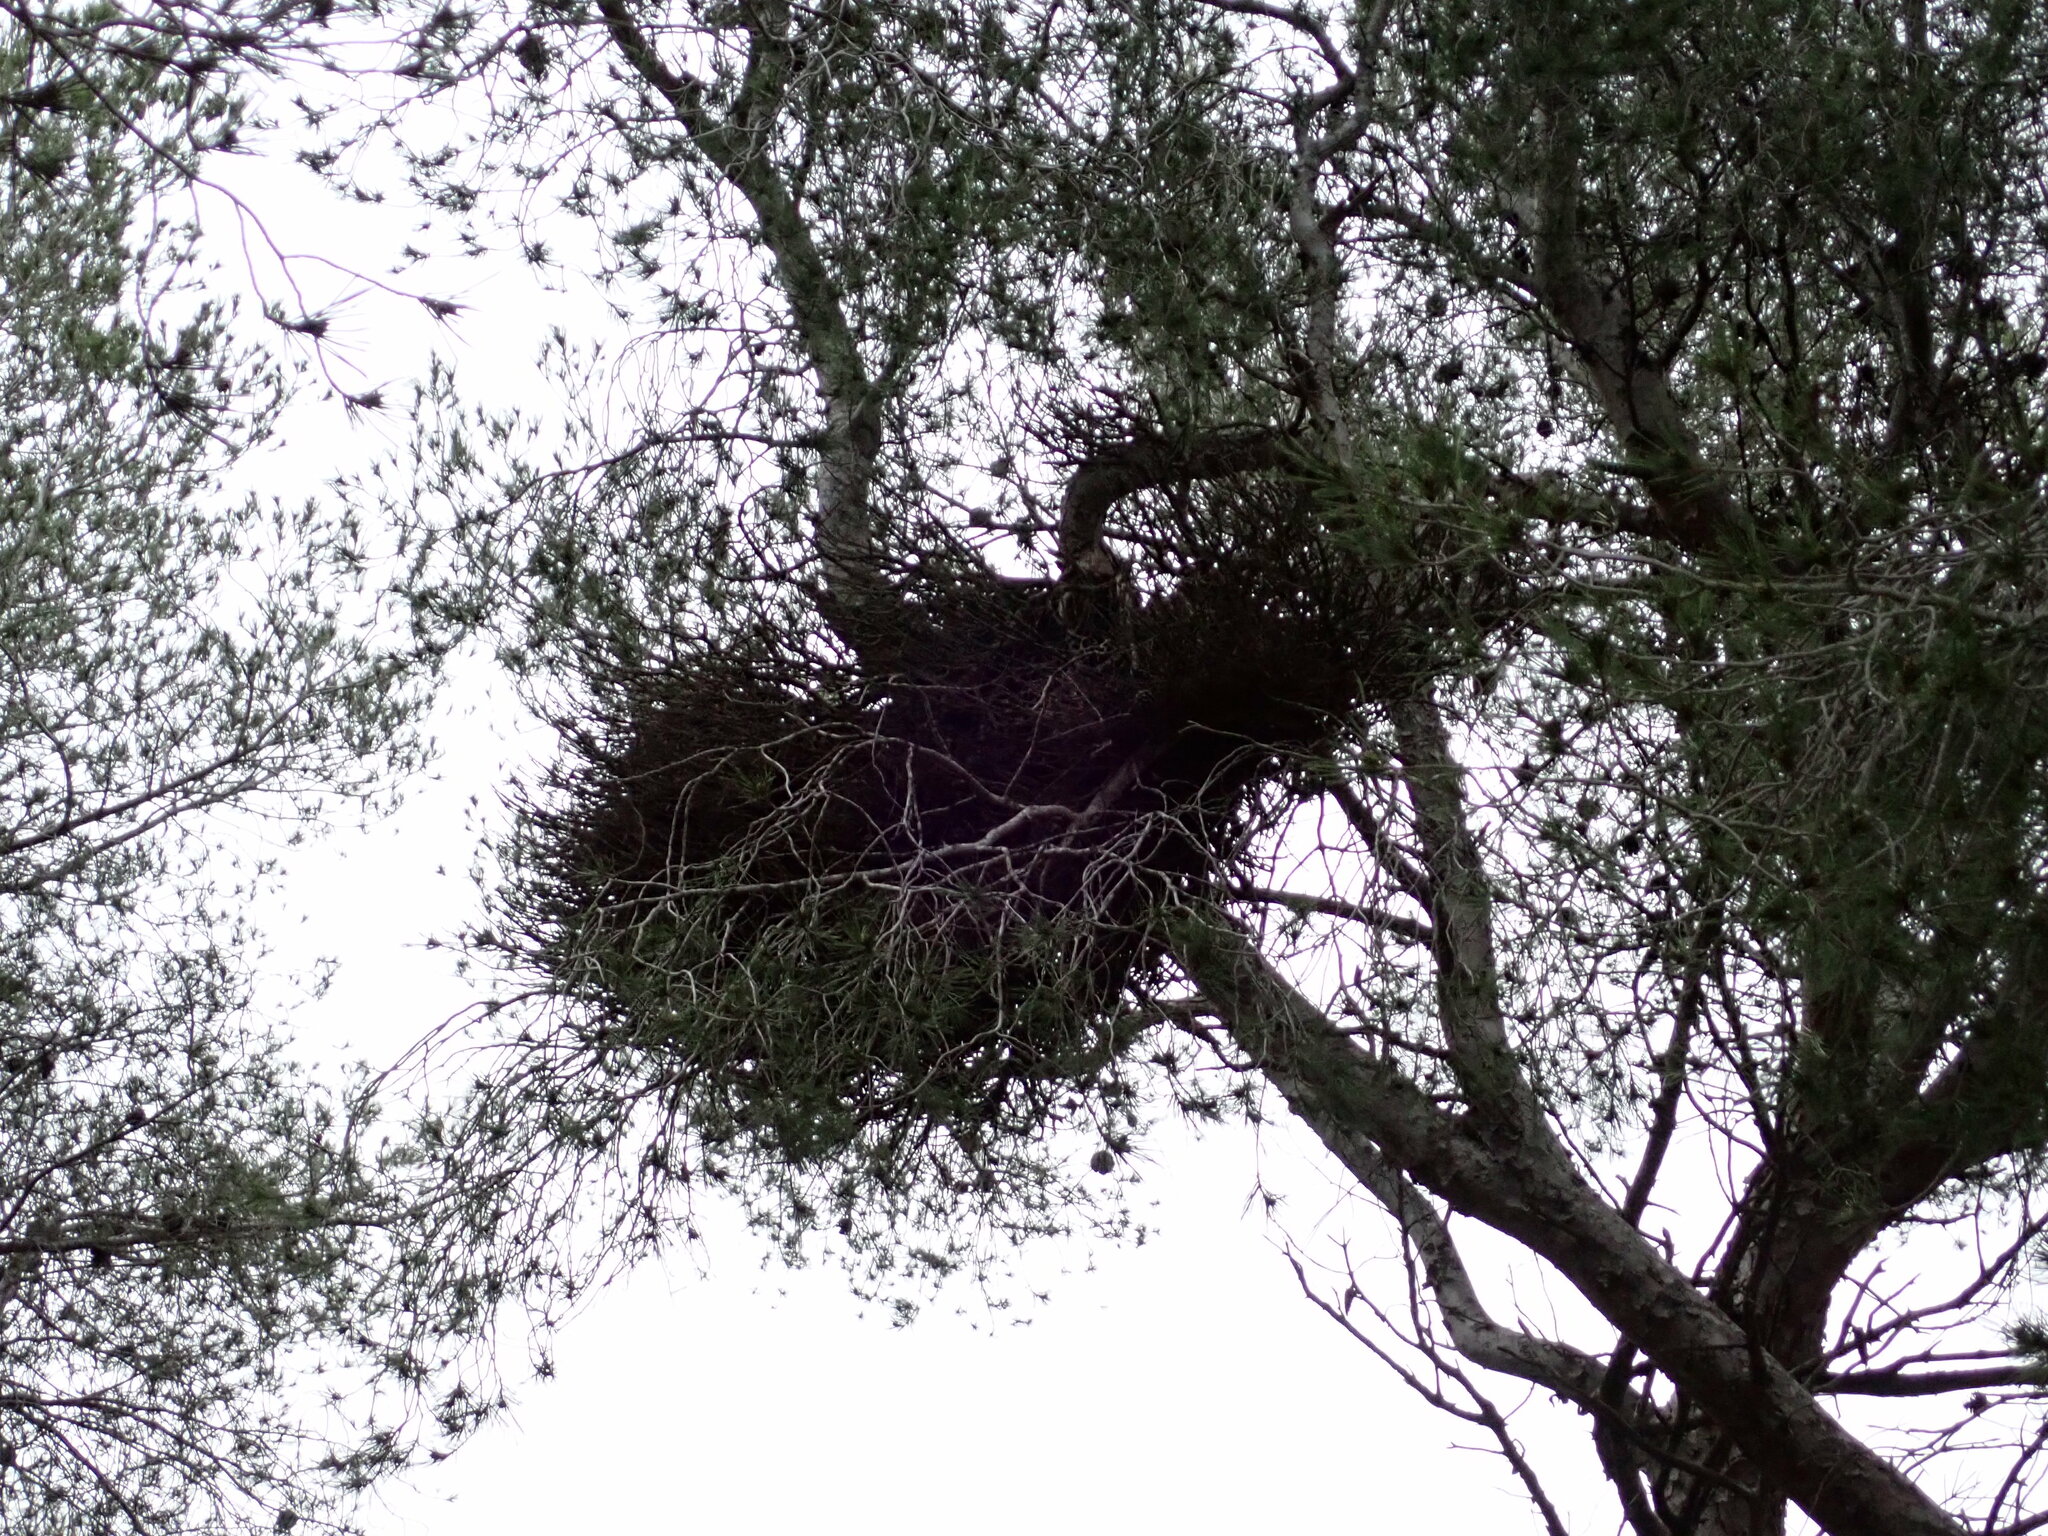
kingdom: Bacteria
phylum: Firmicutes
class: Bacilli
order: Acholeplasmatales
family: Acholeplasmataceae
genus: Phytoplasma
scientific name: Phytoplasma pini
